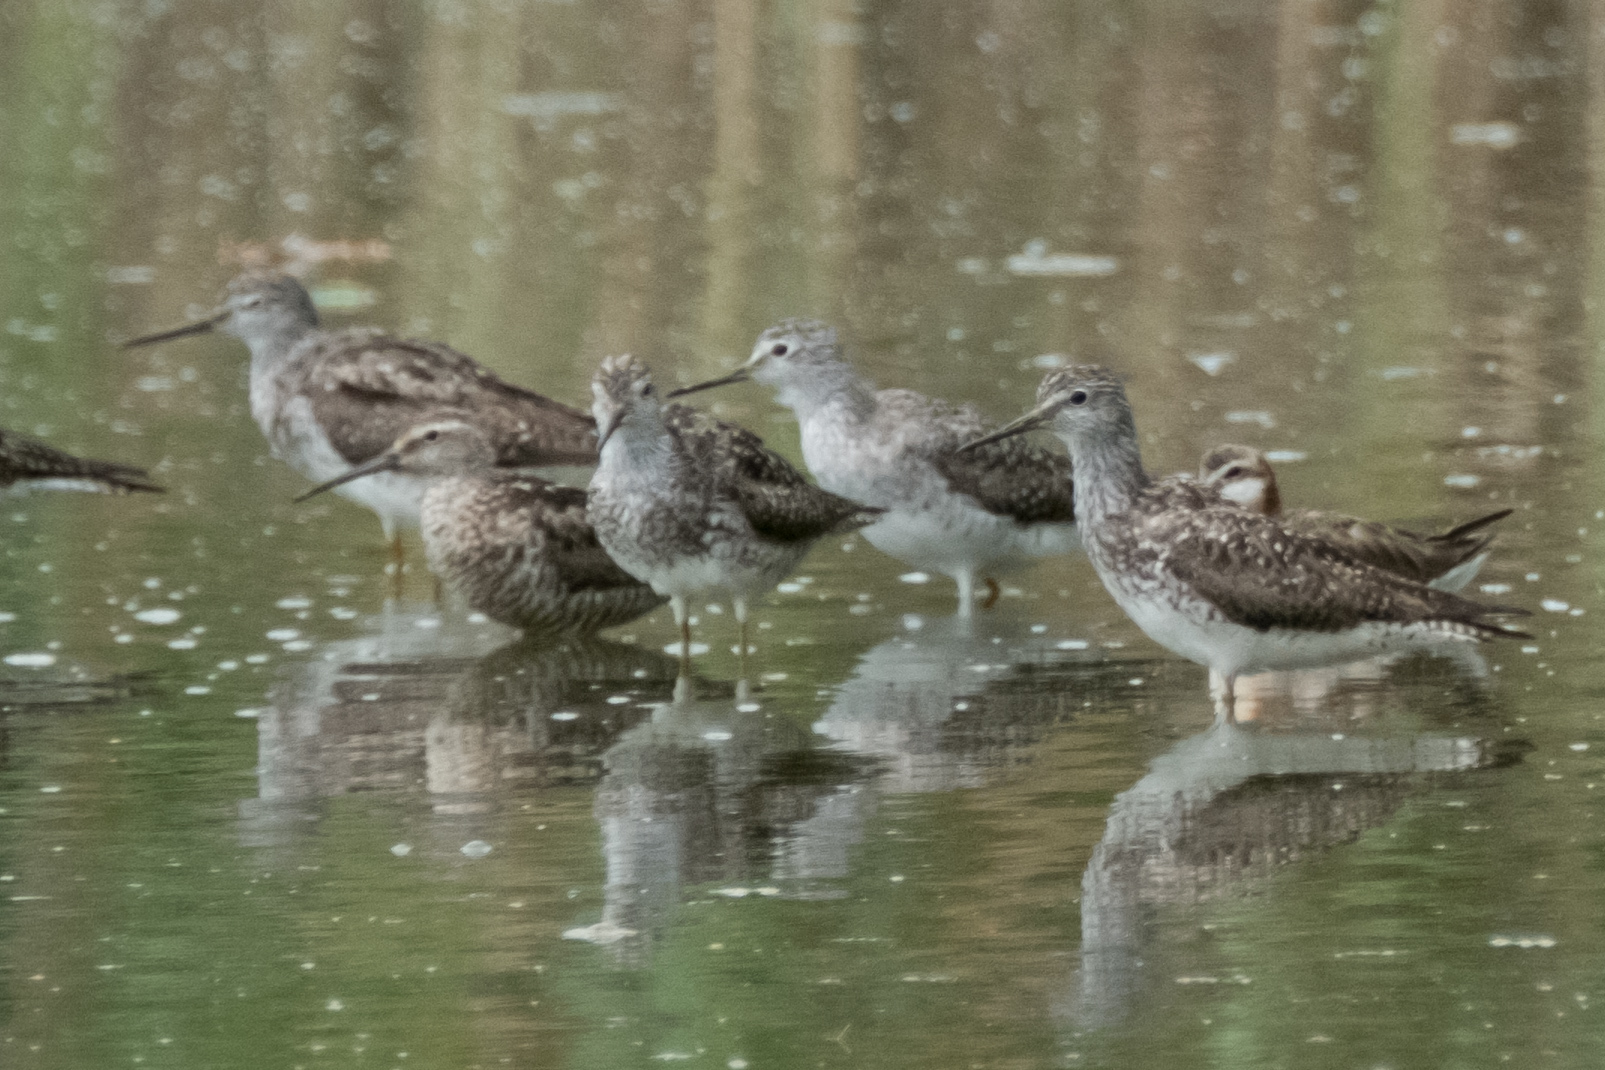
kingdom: Animalia
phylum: Chordata
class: Aves
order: Charadriiformes
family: Scolopacidae
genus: Calidris
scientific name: Calidris himantopus
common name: Stilt sandpiper
